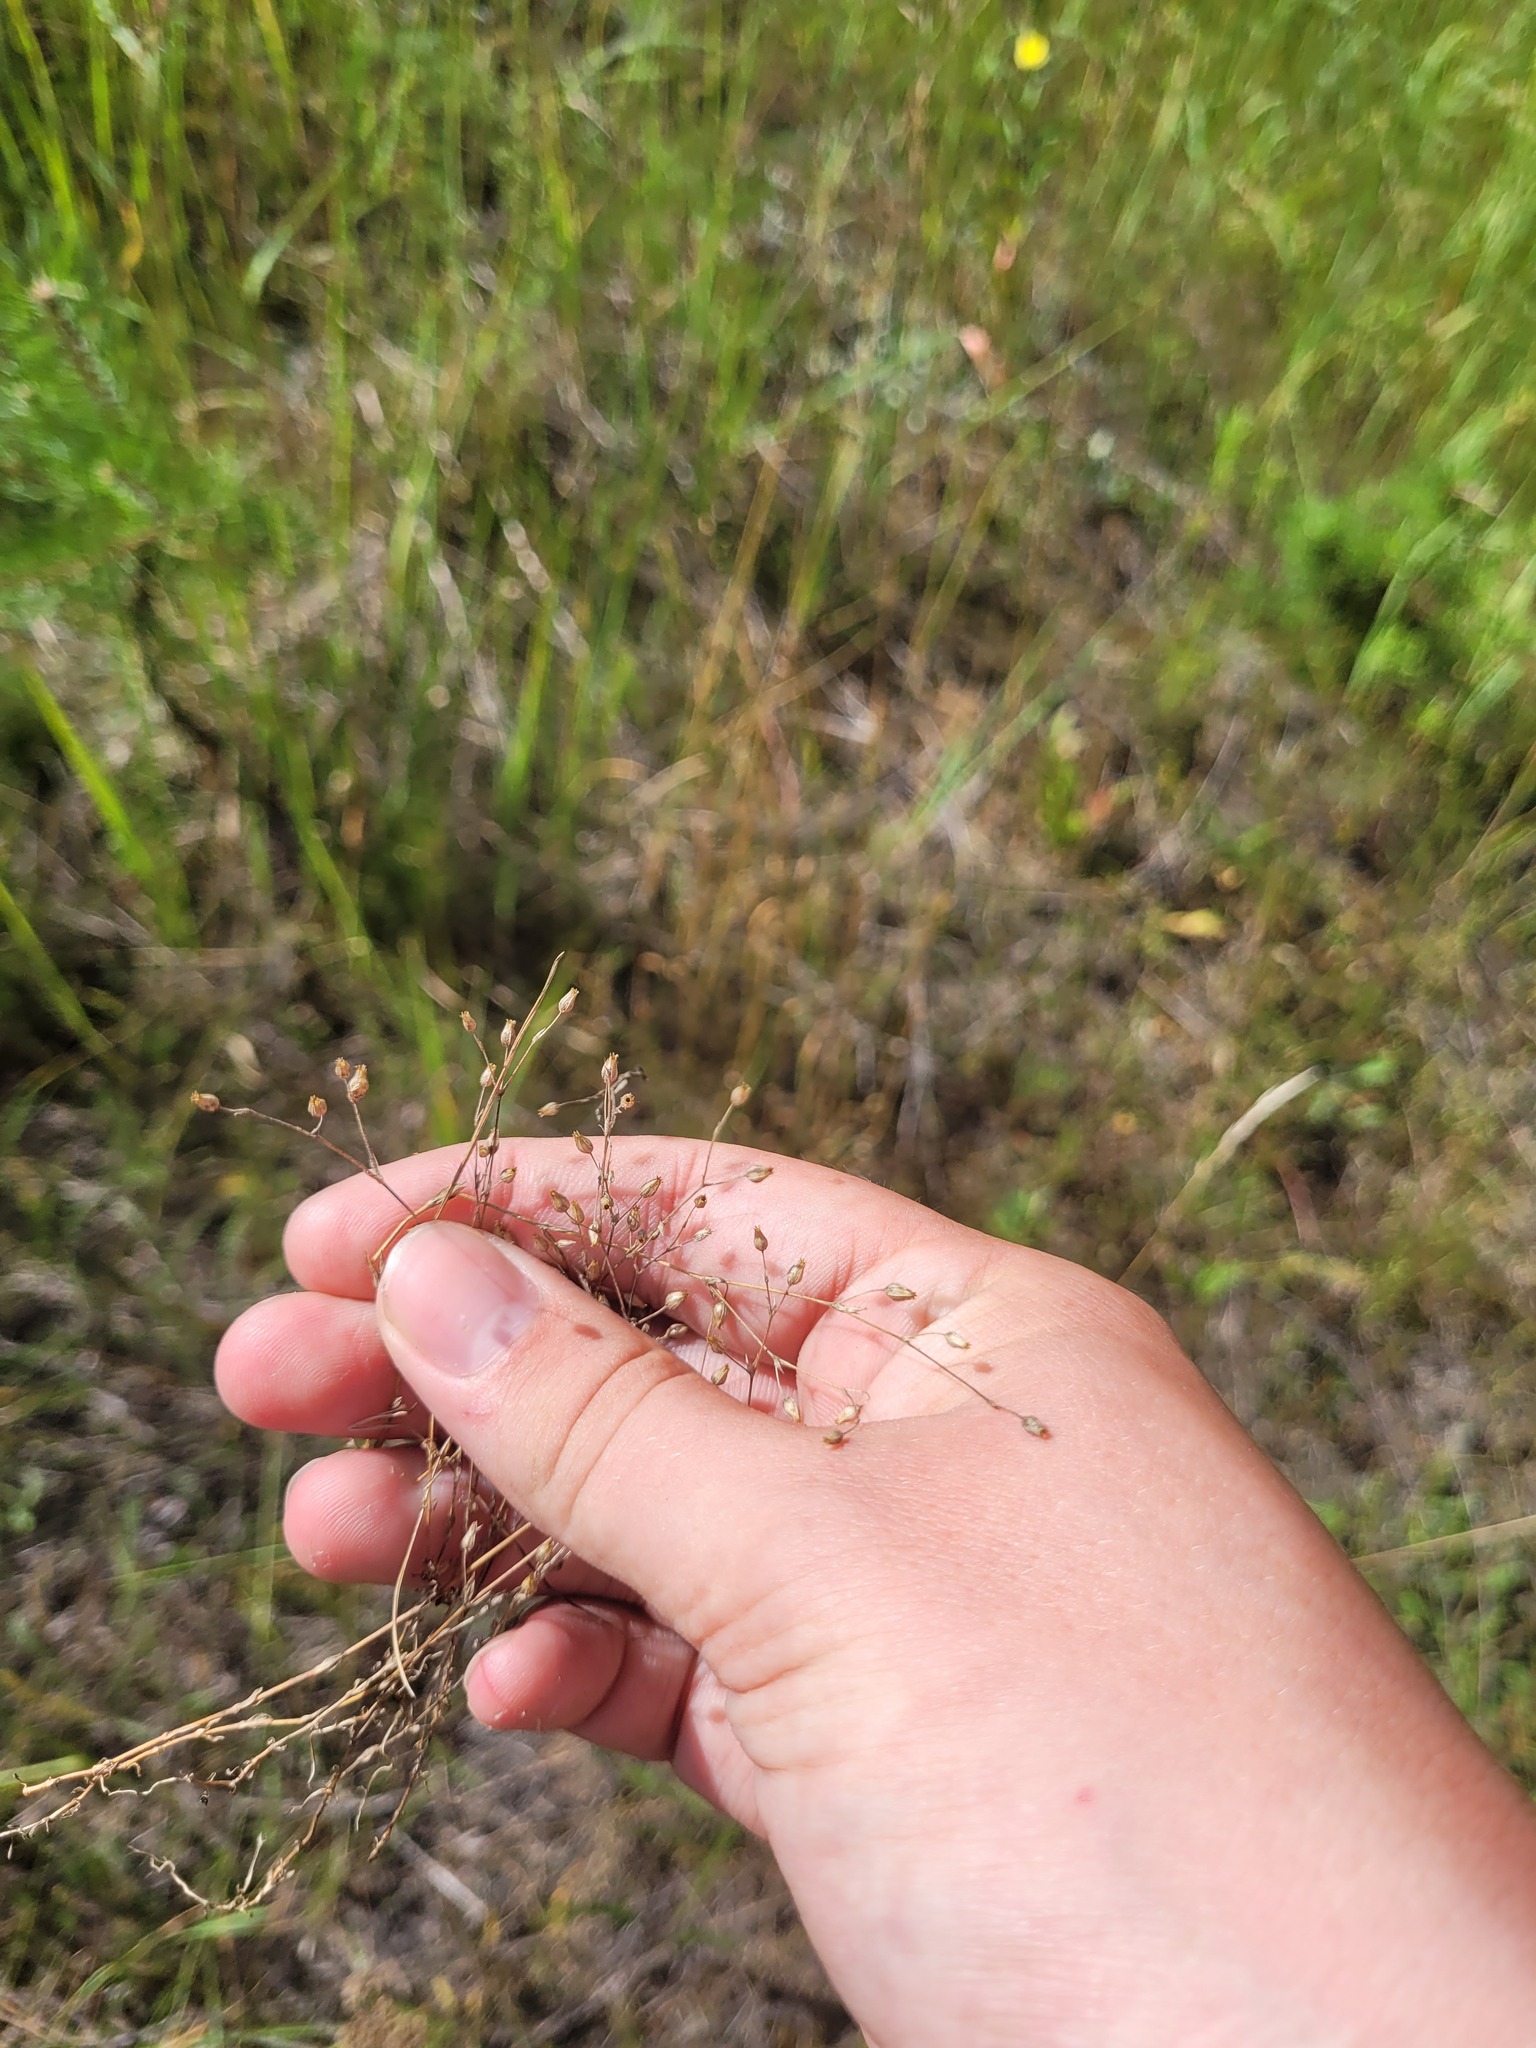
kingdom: Plantae
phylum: Tracheophyta
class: Magnoliopsida
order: Caryophyllales
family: Caryophyllaceae
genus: Arenaria
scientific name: Arenaria serpyllifolia
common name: Thyme-leaved sandwort
